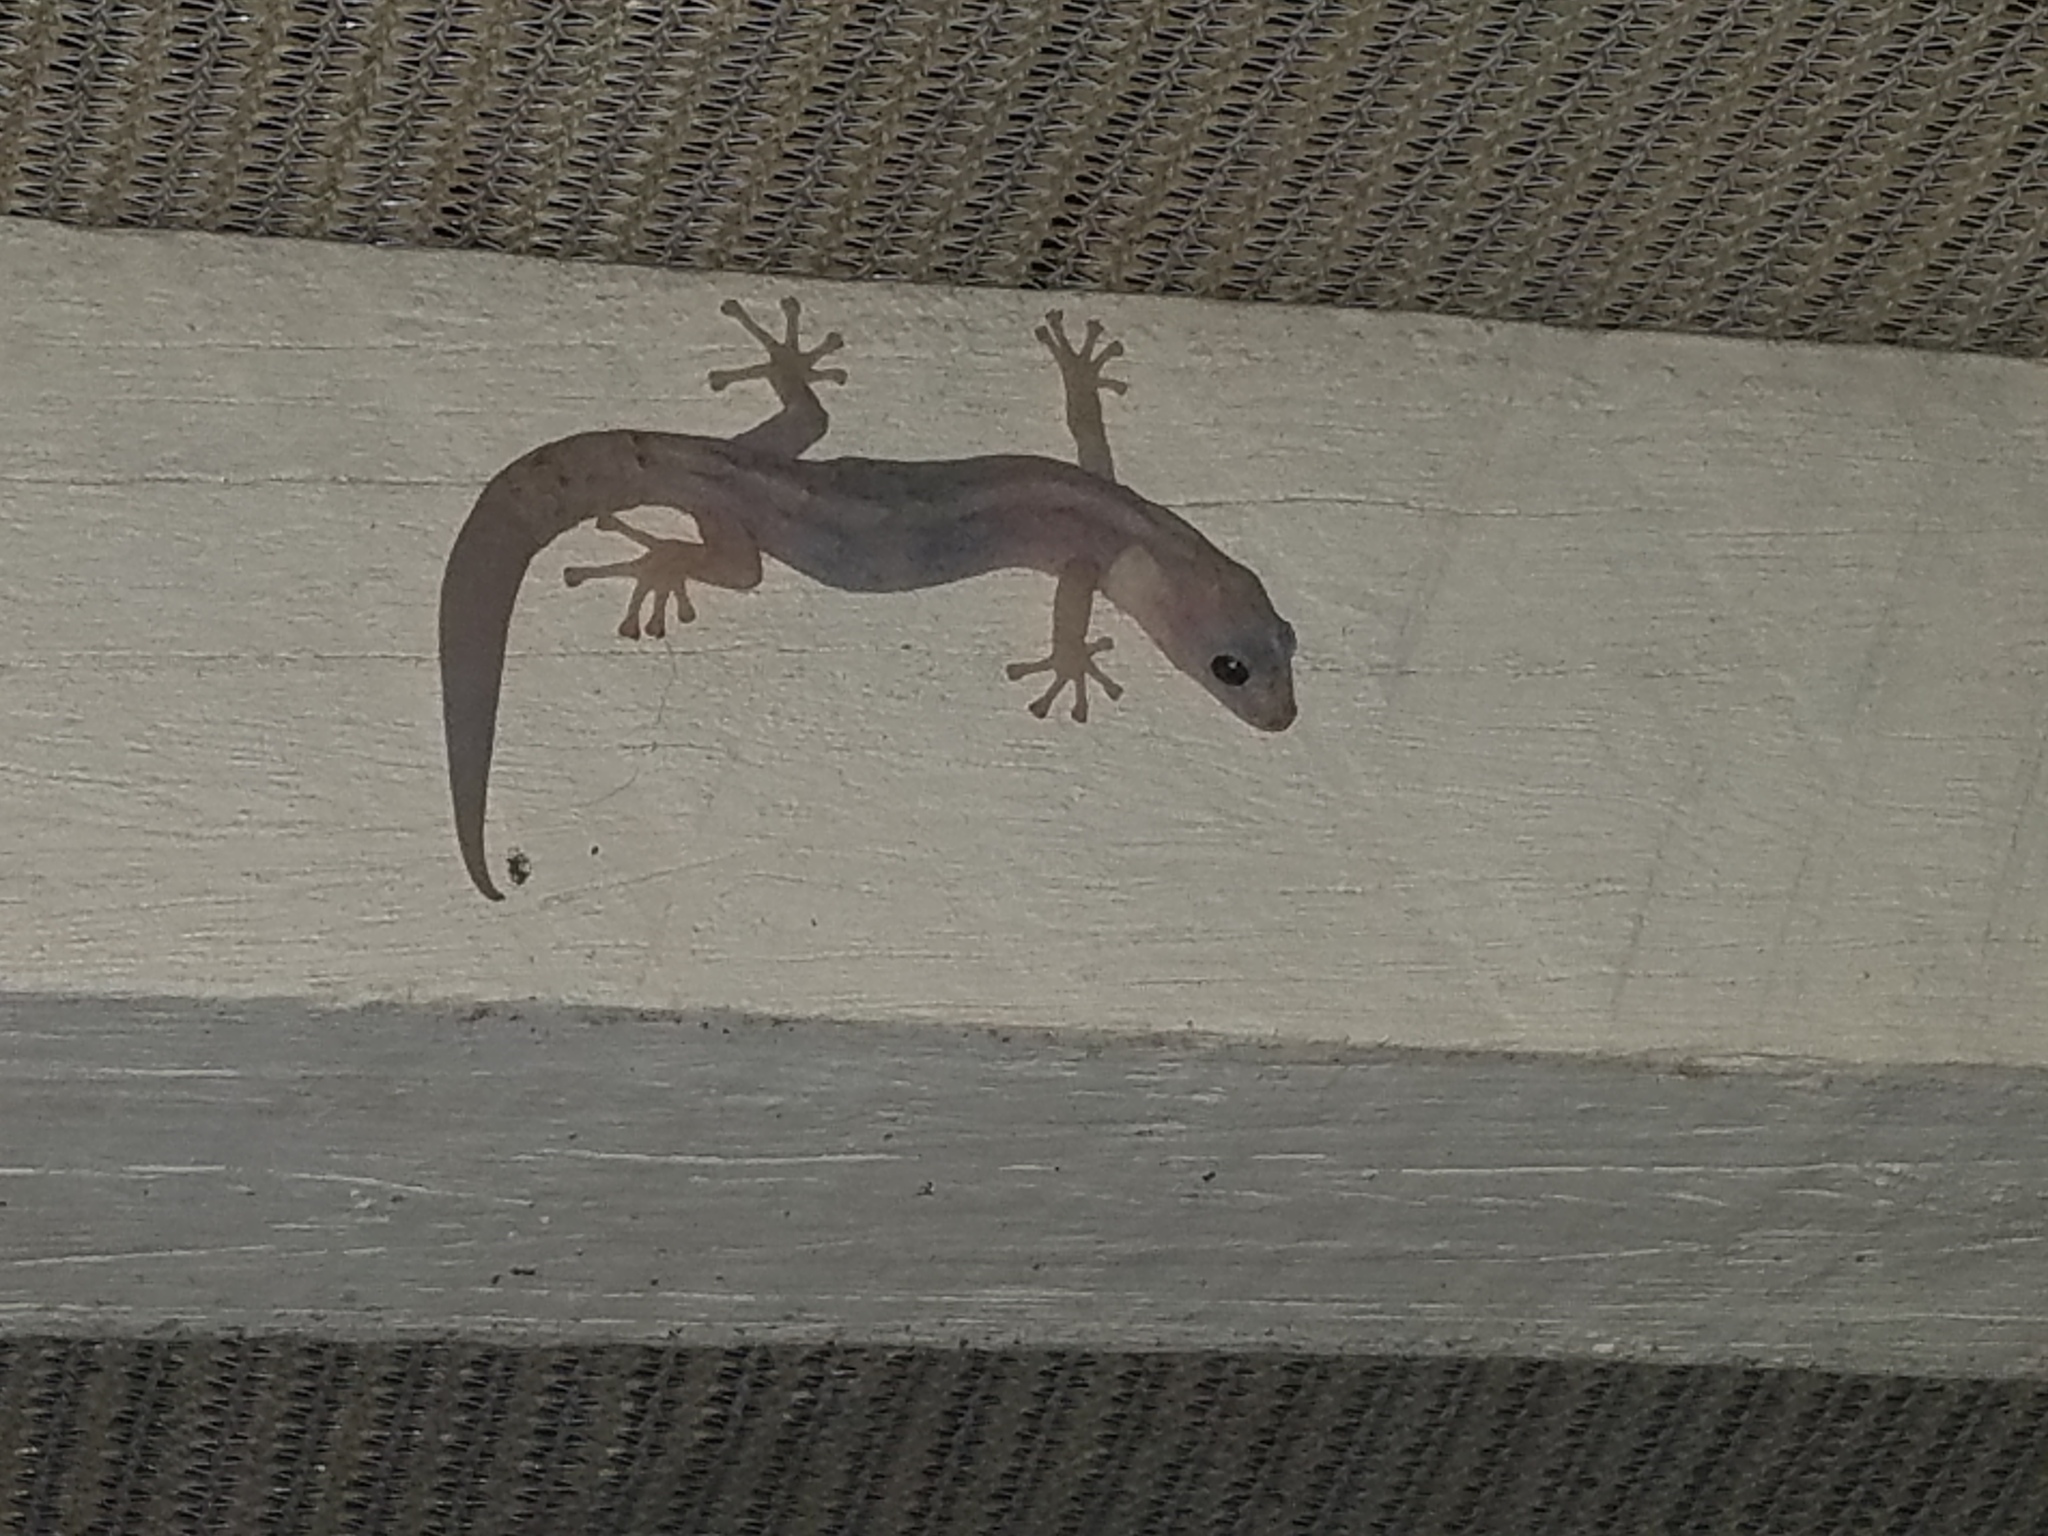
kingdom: Animalia
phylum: Chordata
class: Squamata
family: Gekkonidae
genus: Christinus
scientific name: Christinus marmoratus
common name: Marbled gecko
